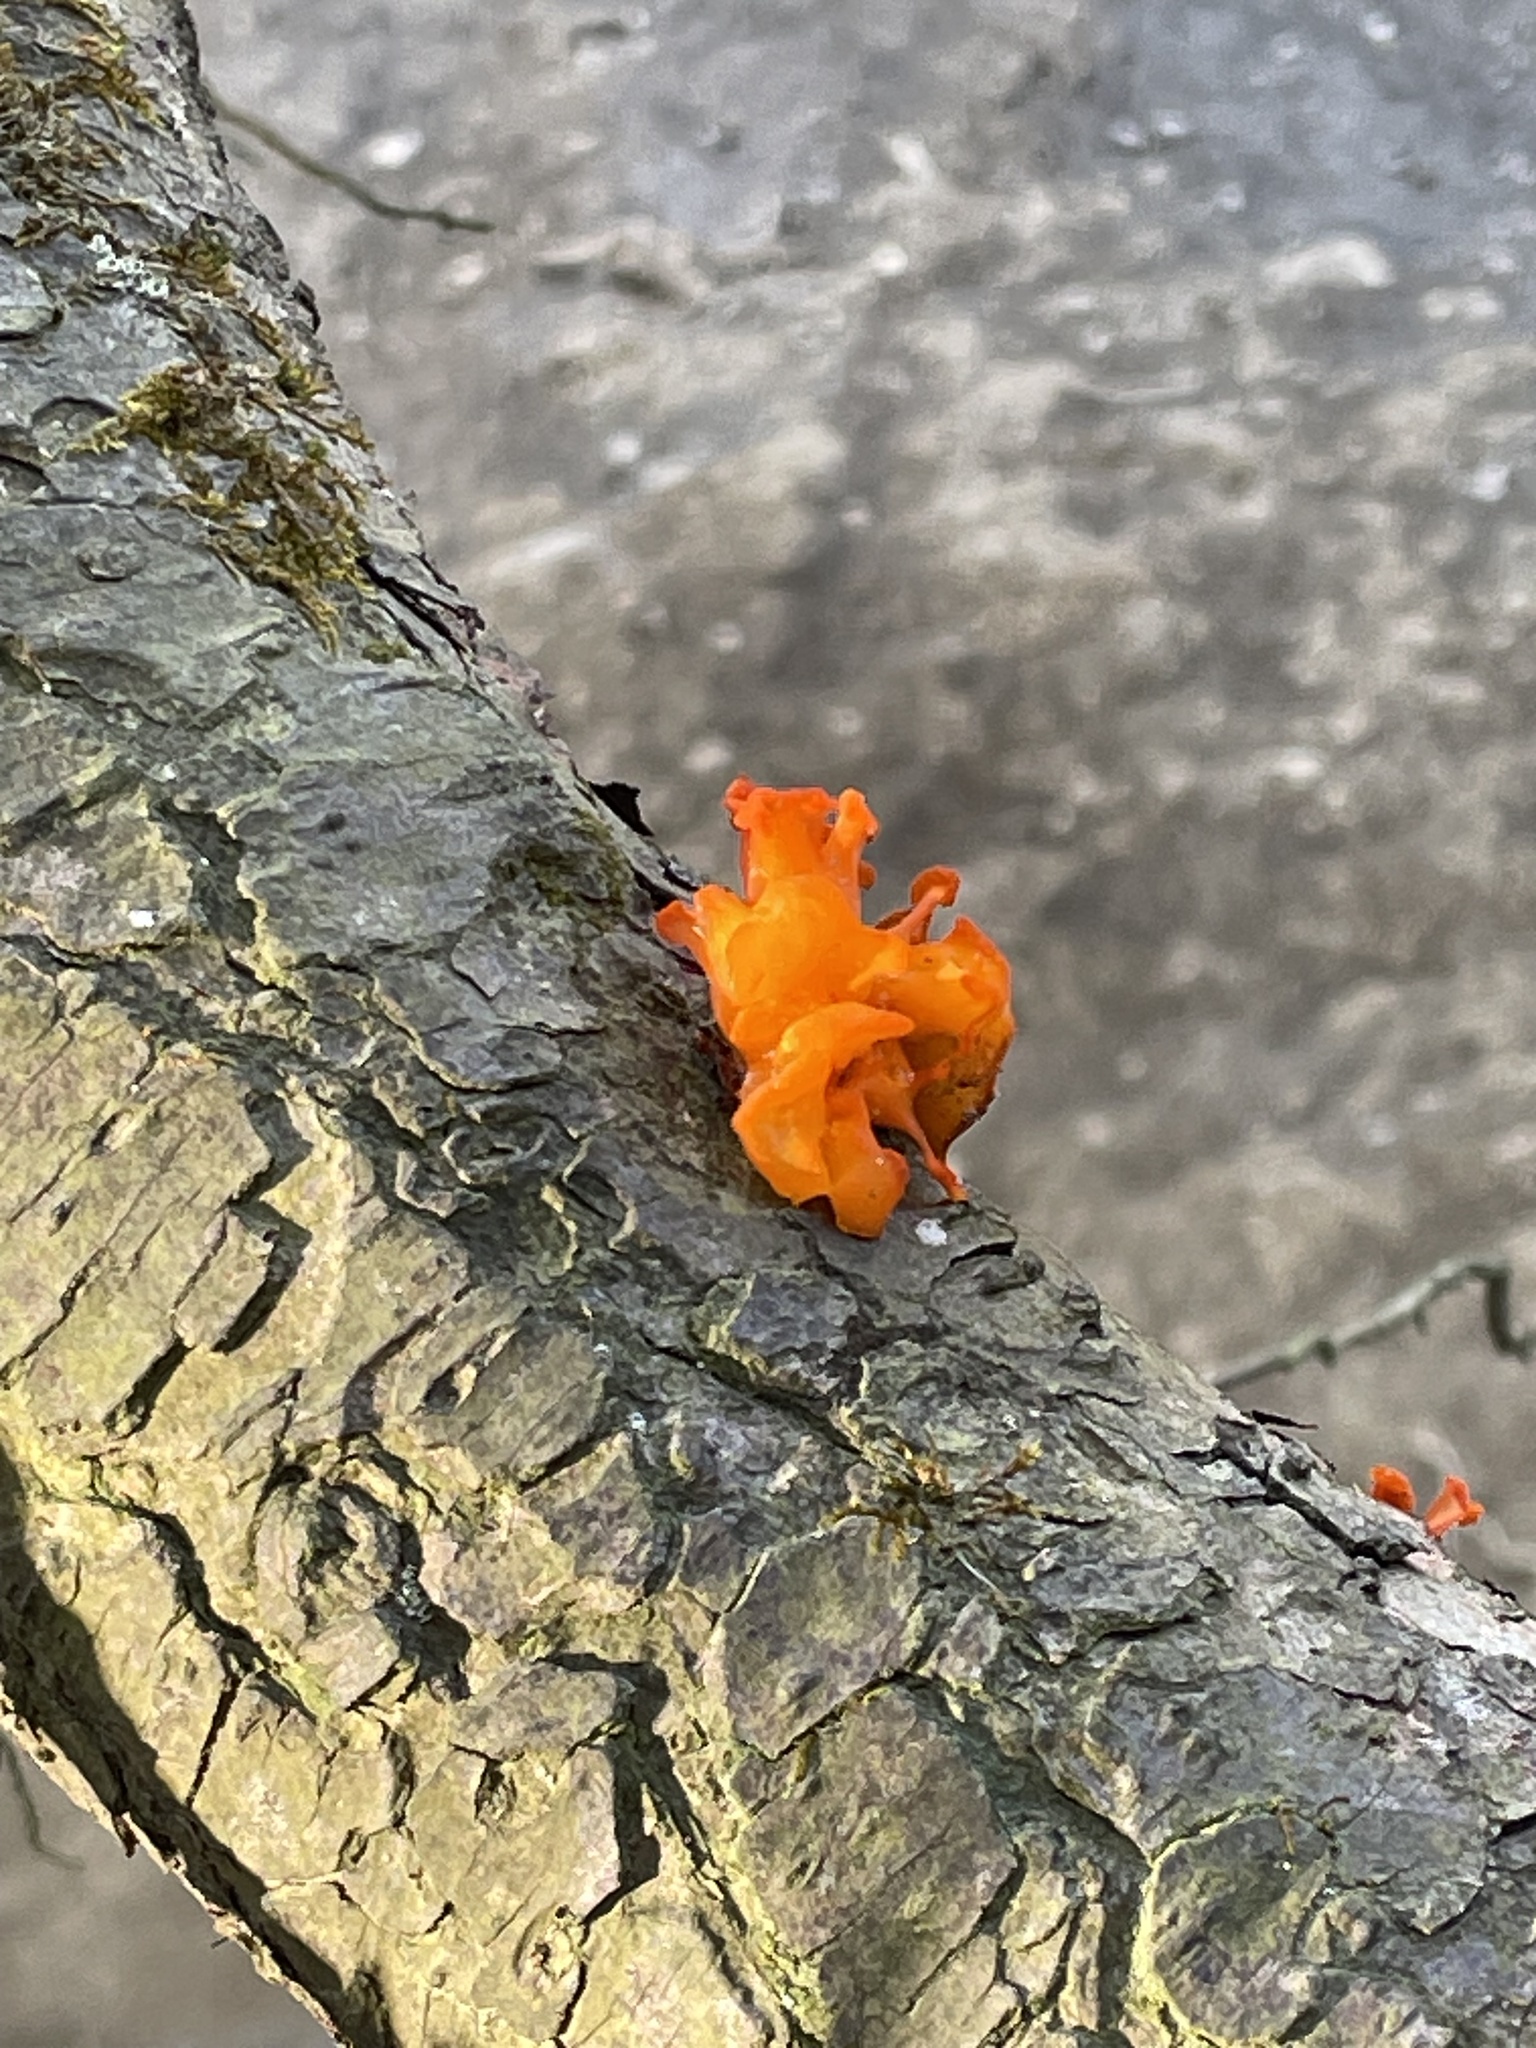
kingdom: Fungi
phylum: Basidiomycota
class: Dacrymycetes
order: Dacrymycetales
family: Dacrymycetaceae
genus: Dacrymyces
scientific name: Dacrymyces chrysospermus
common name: Orange jelly spot
